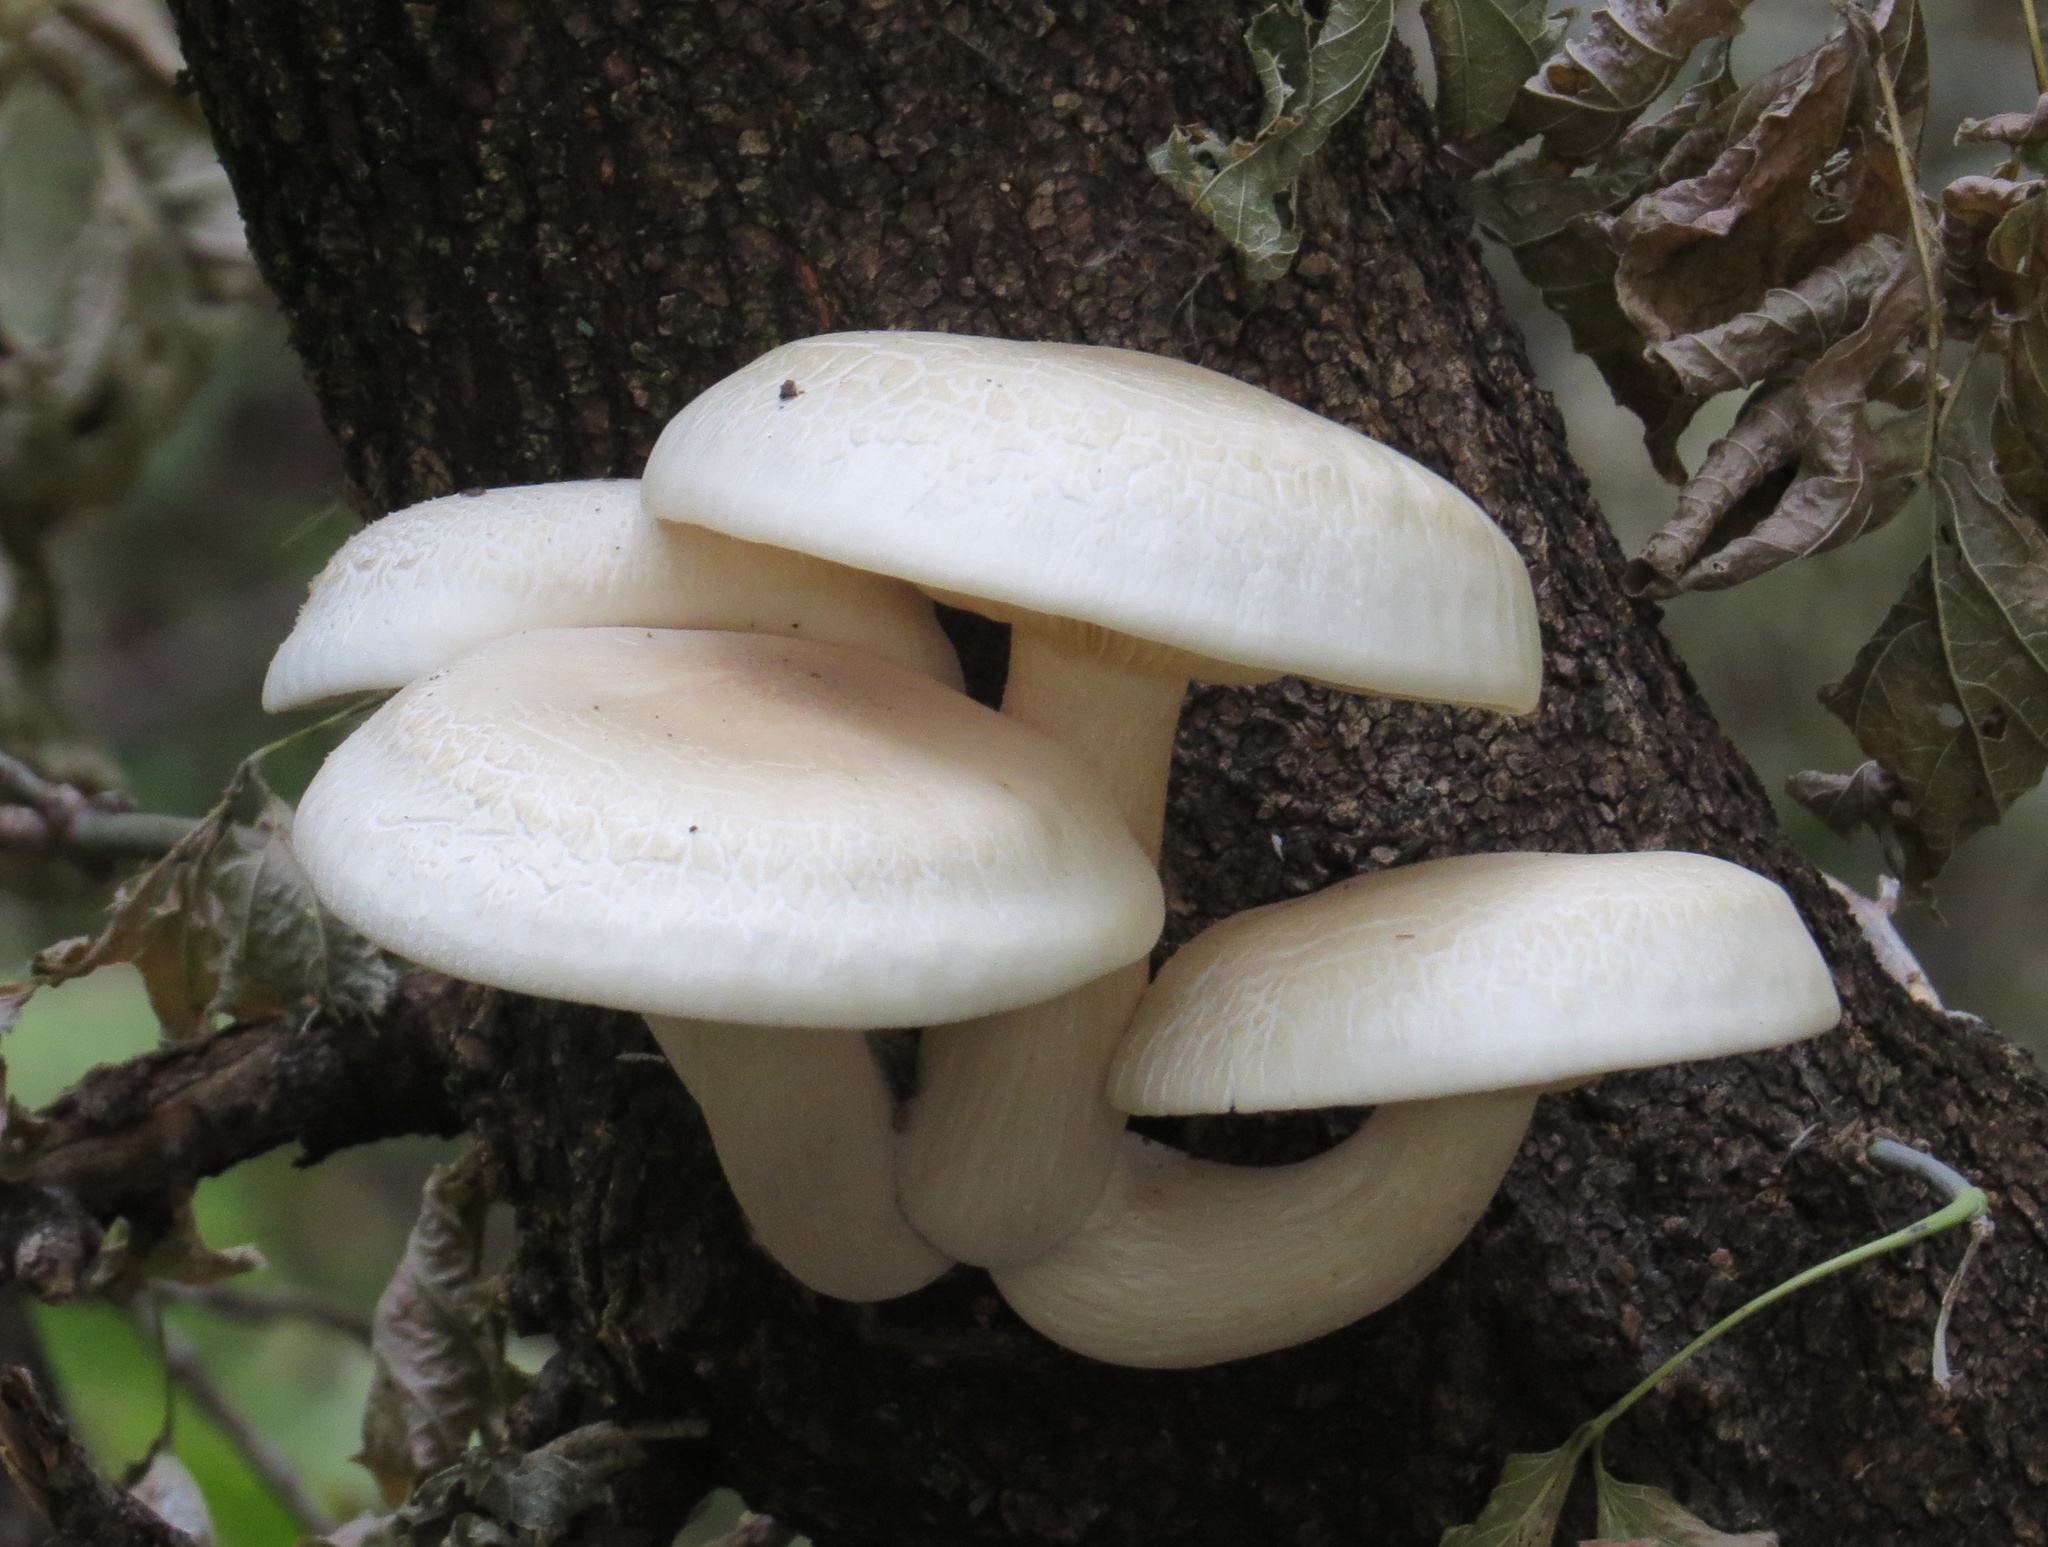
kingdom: Fungi
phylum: Basidiomycota
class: Agaricomycetes
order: Agaricales
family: Lyophyllaceae
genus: Hypsizygus
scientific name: Hypsizygus ulmarius
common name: Elm leech
